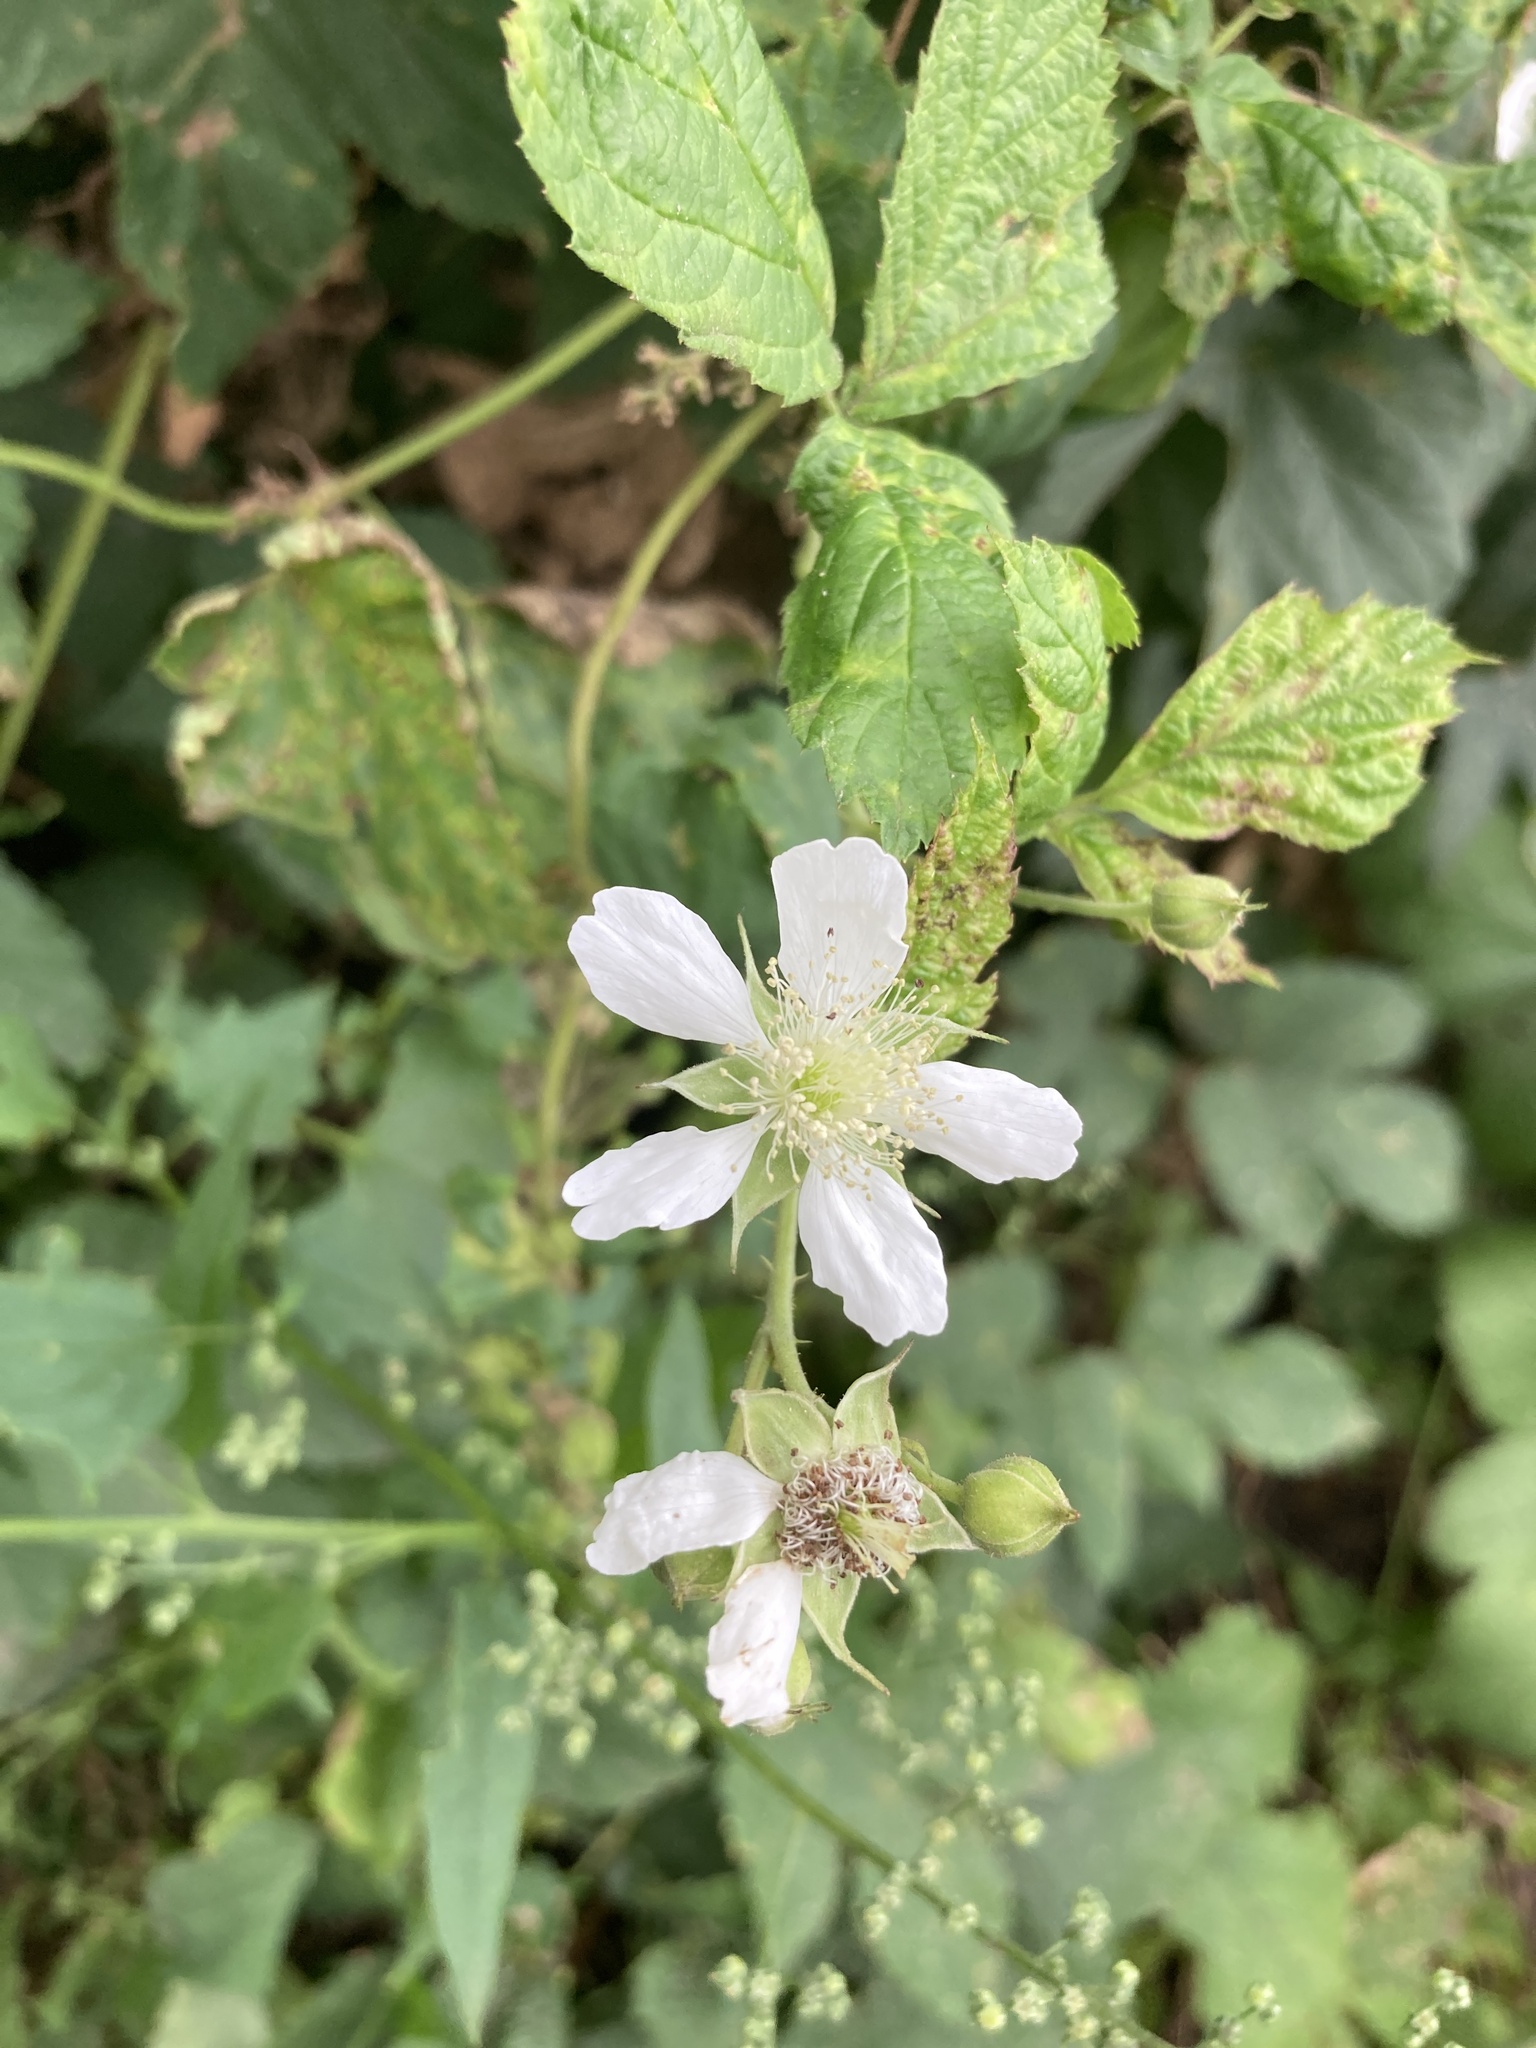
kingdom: Plantae
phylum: Tracheophyta
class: Magnoliopsida
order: Rosales
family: Rosaceae
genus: Rubus
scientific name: Rubus caesius
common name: Dewberry
